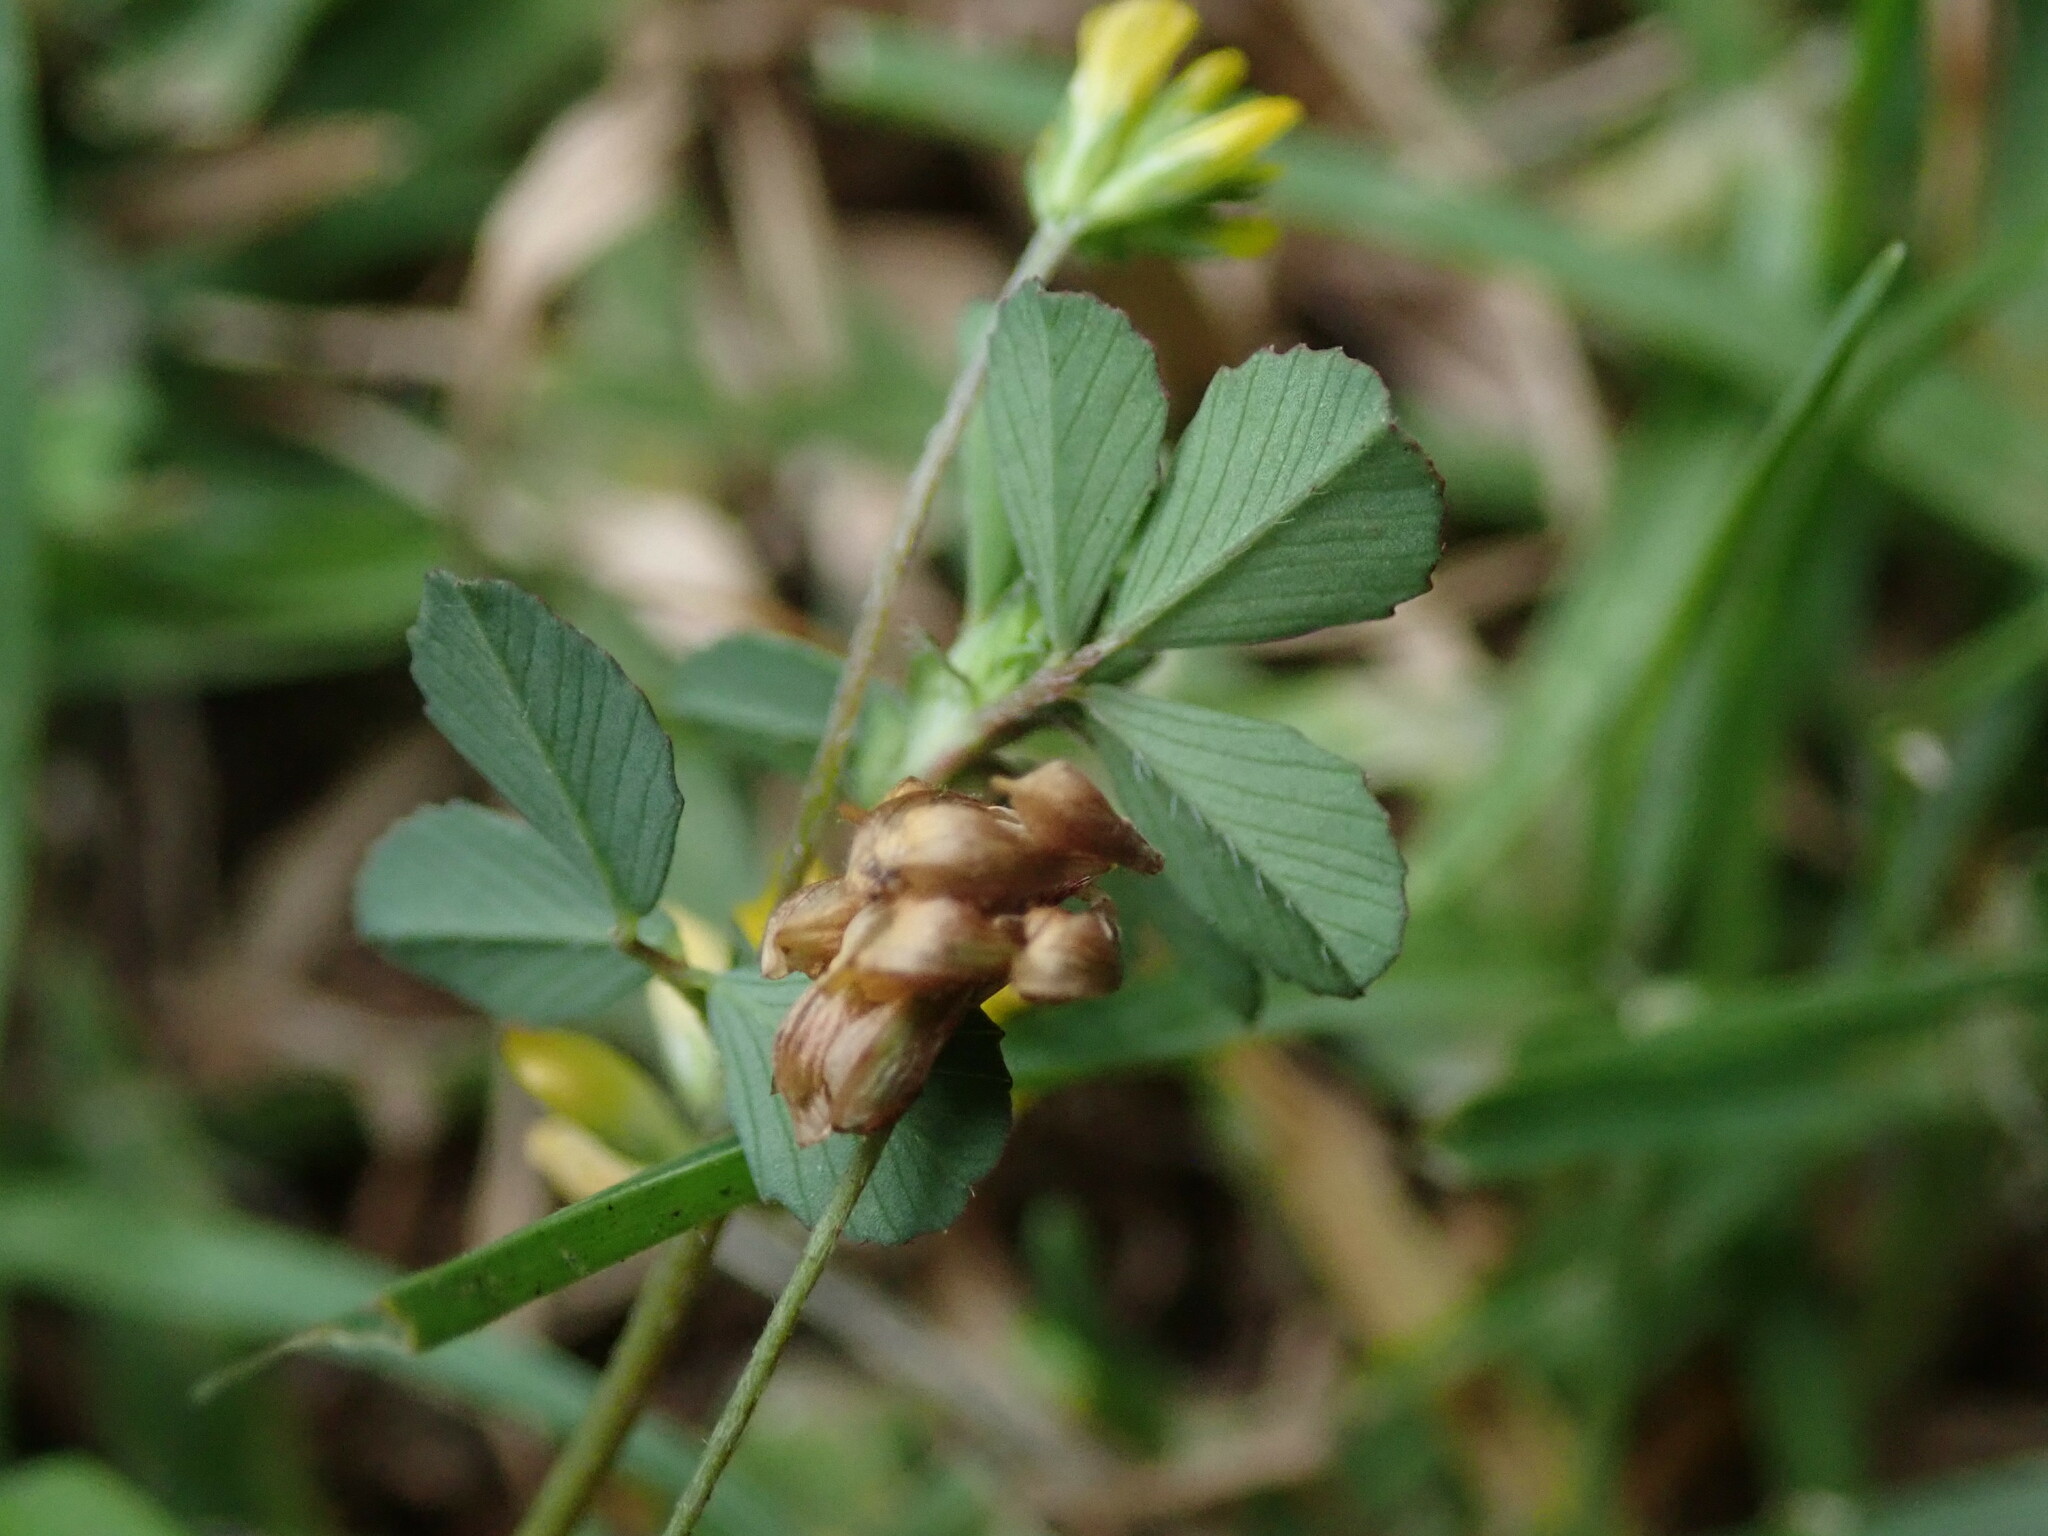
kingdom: Plantae
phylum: Tracheophyta
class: Magnoliopsida
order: Fabales
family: Fabaceae
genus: Trifolium
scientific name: Trifolium dubium
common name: Suckling clover
